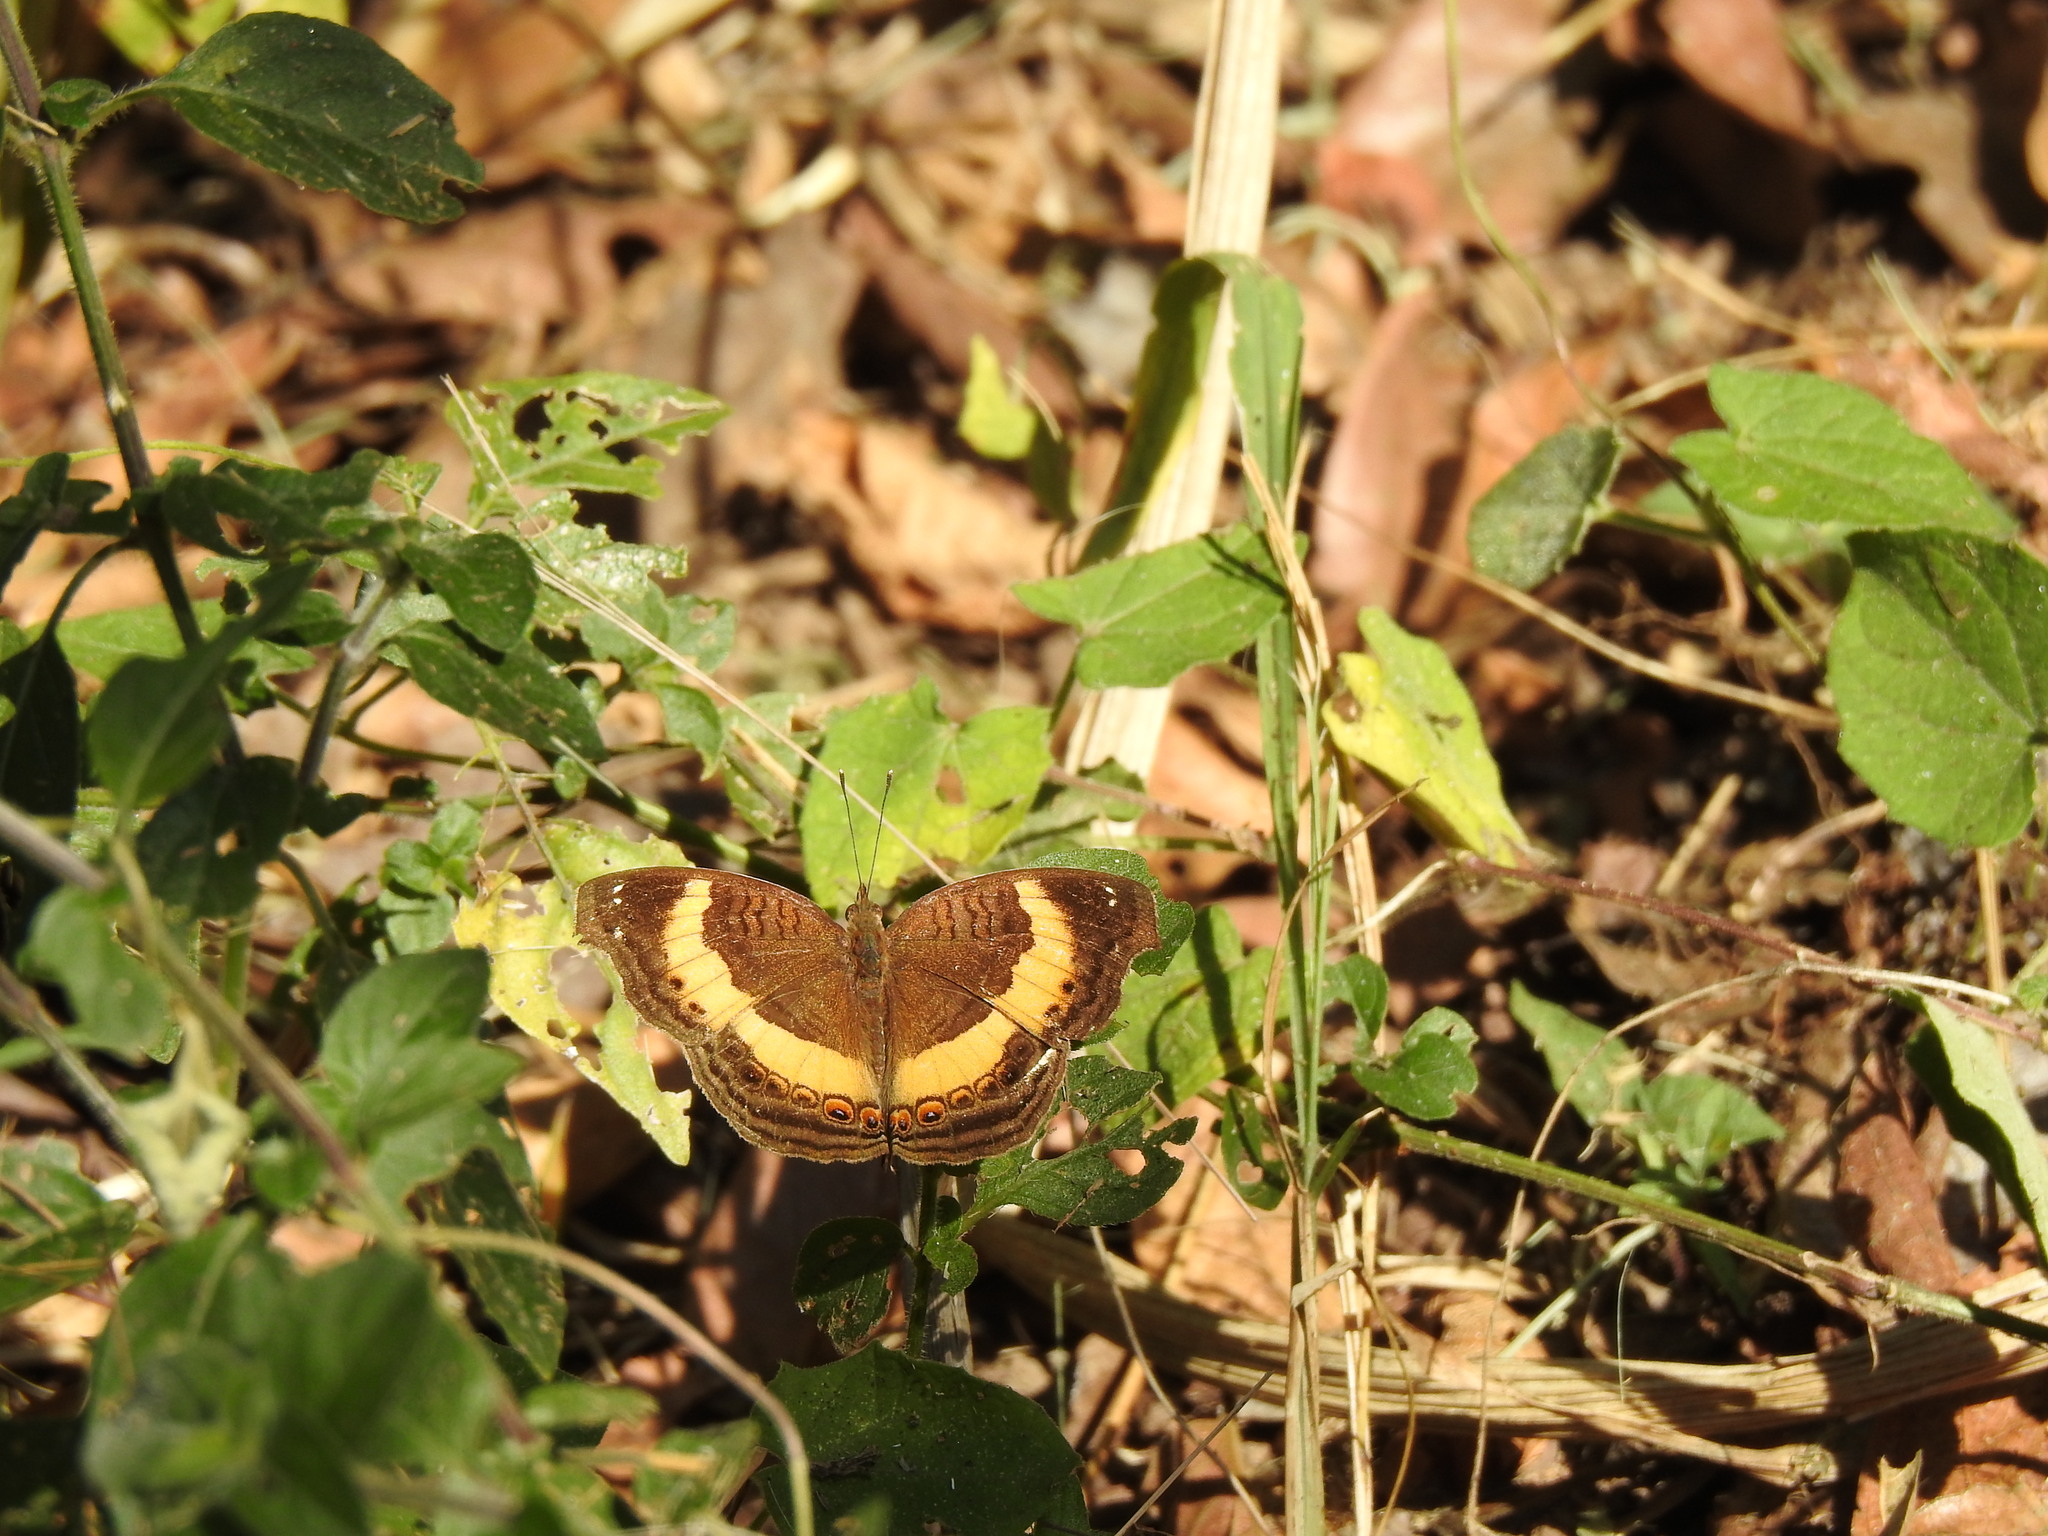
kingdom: Animalia
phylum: Arthropoda
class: Insecta
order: Lepidoptera
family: Nymphalidae
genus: Junonia
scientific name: Junonia terea
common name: Soldier pansy
